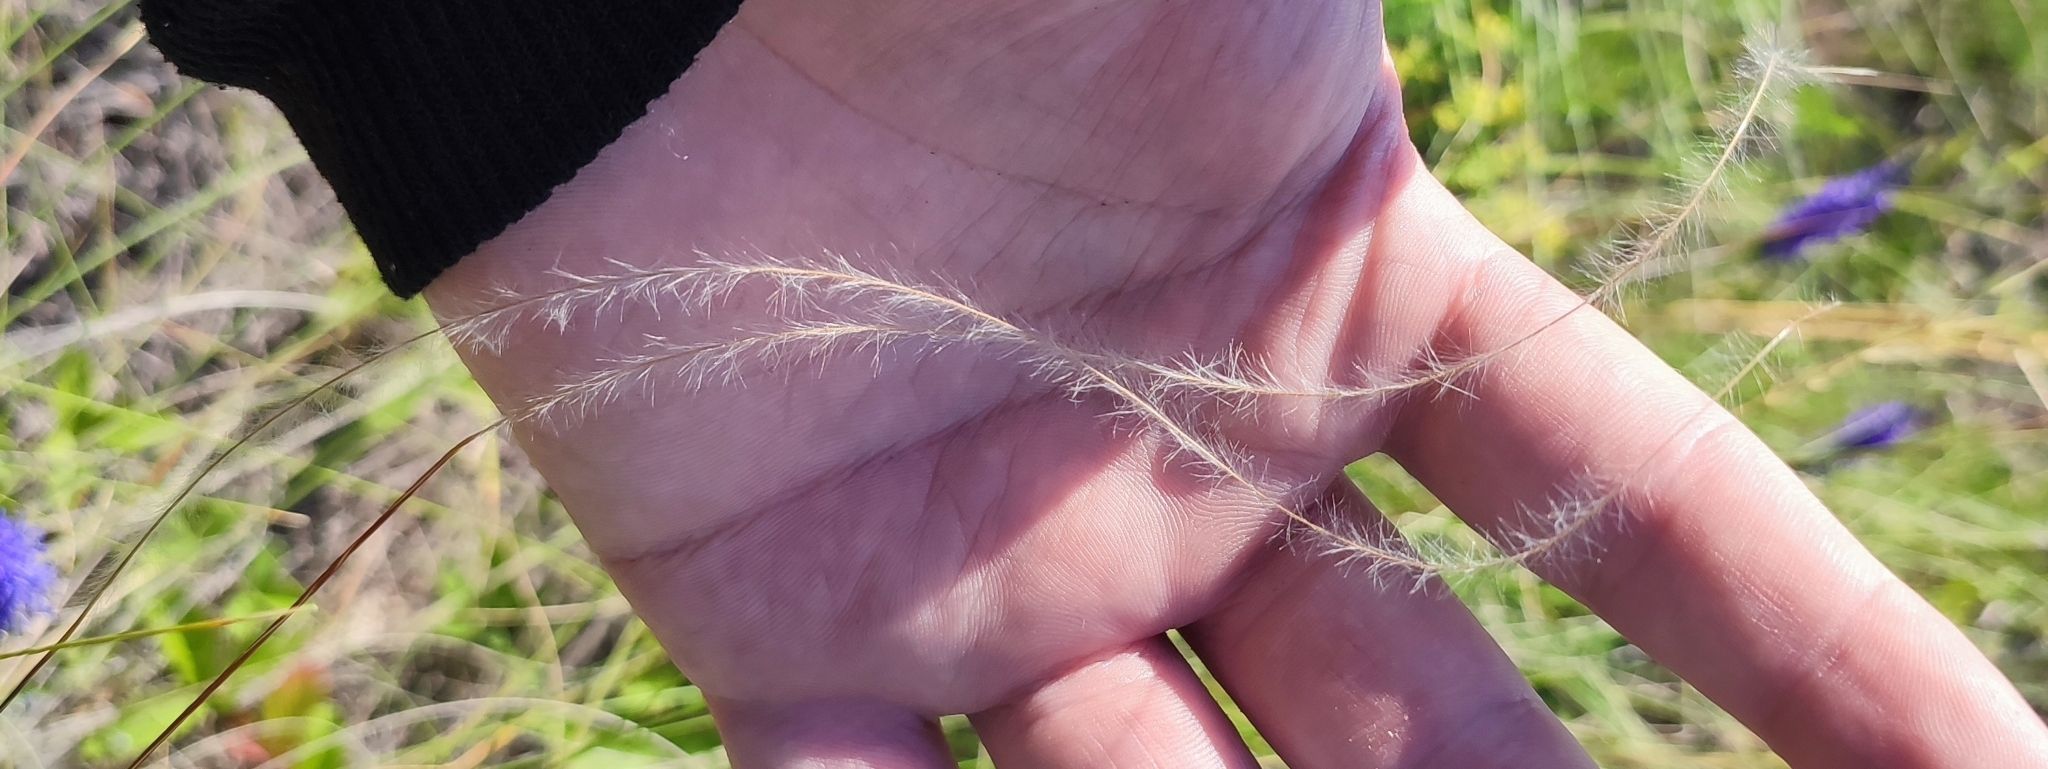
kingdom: Plantae
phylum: Tracheophyta
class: Liliopsida
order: Poales
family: Poaceae
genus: Stipa
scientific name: Stipa pennata
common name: European feather grass
